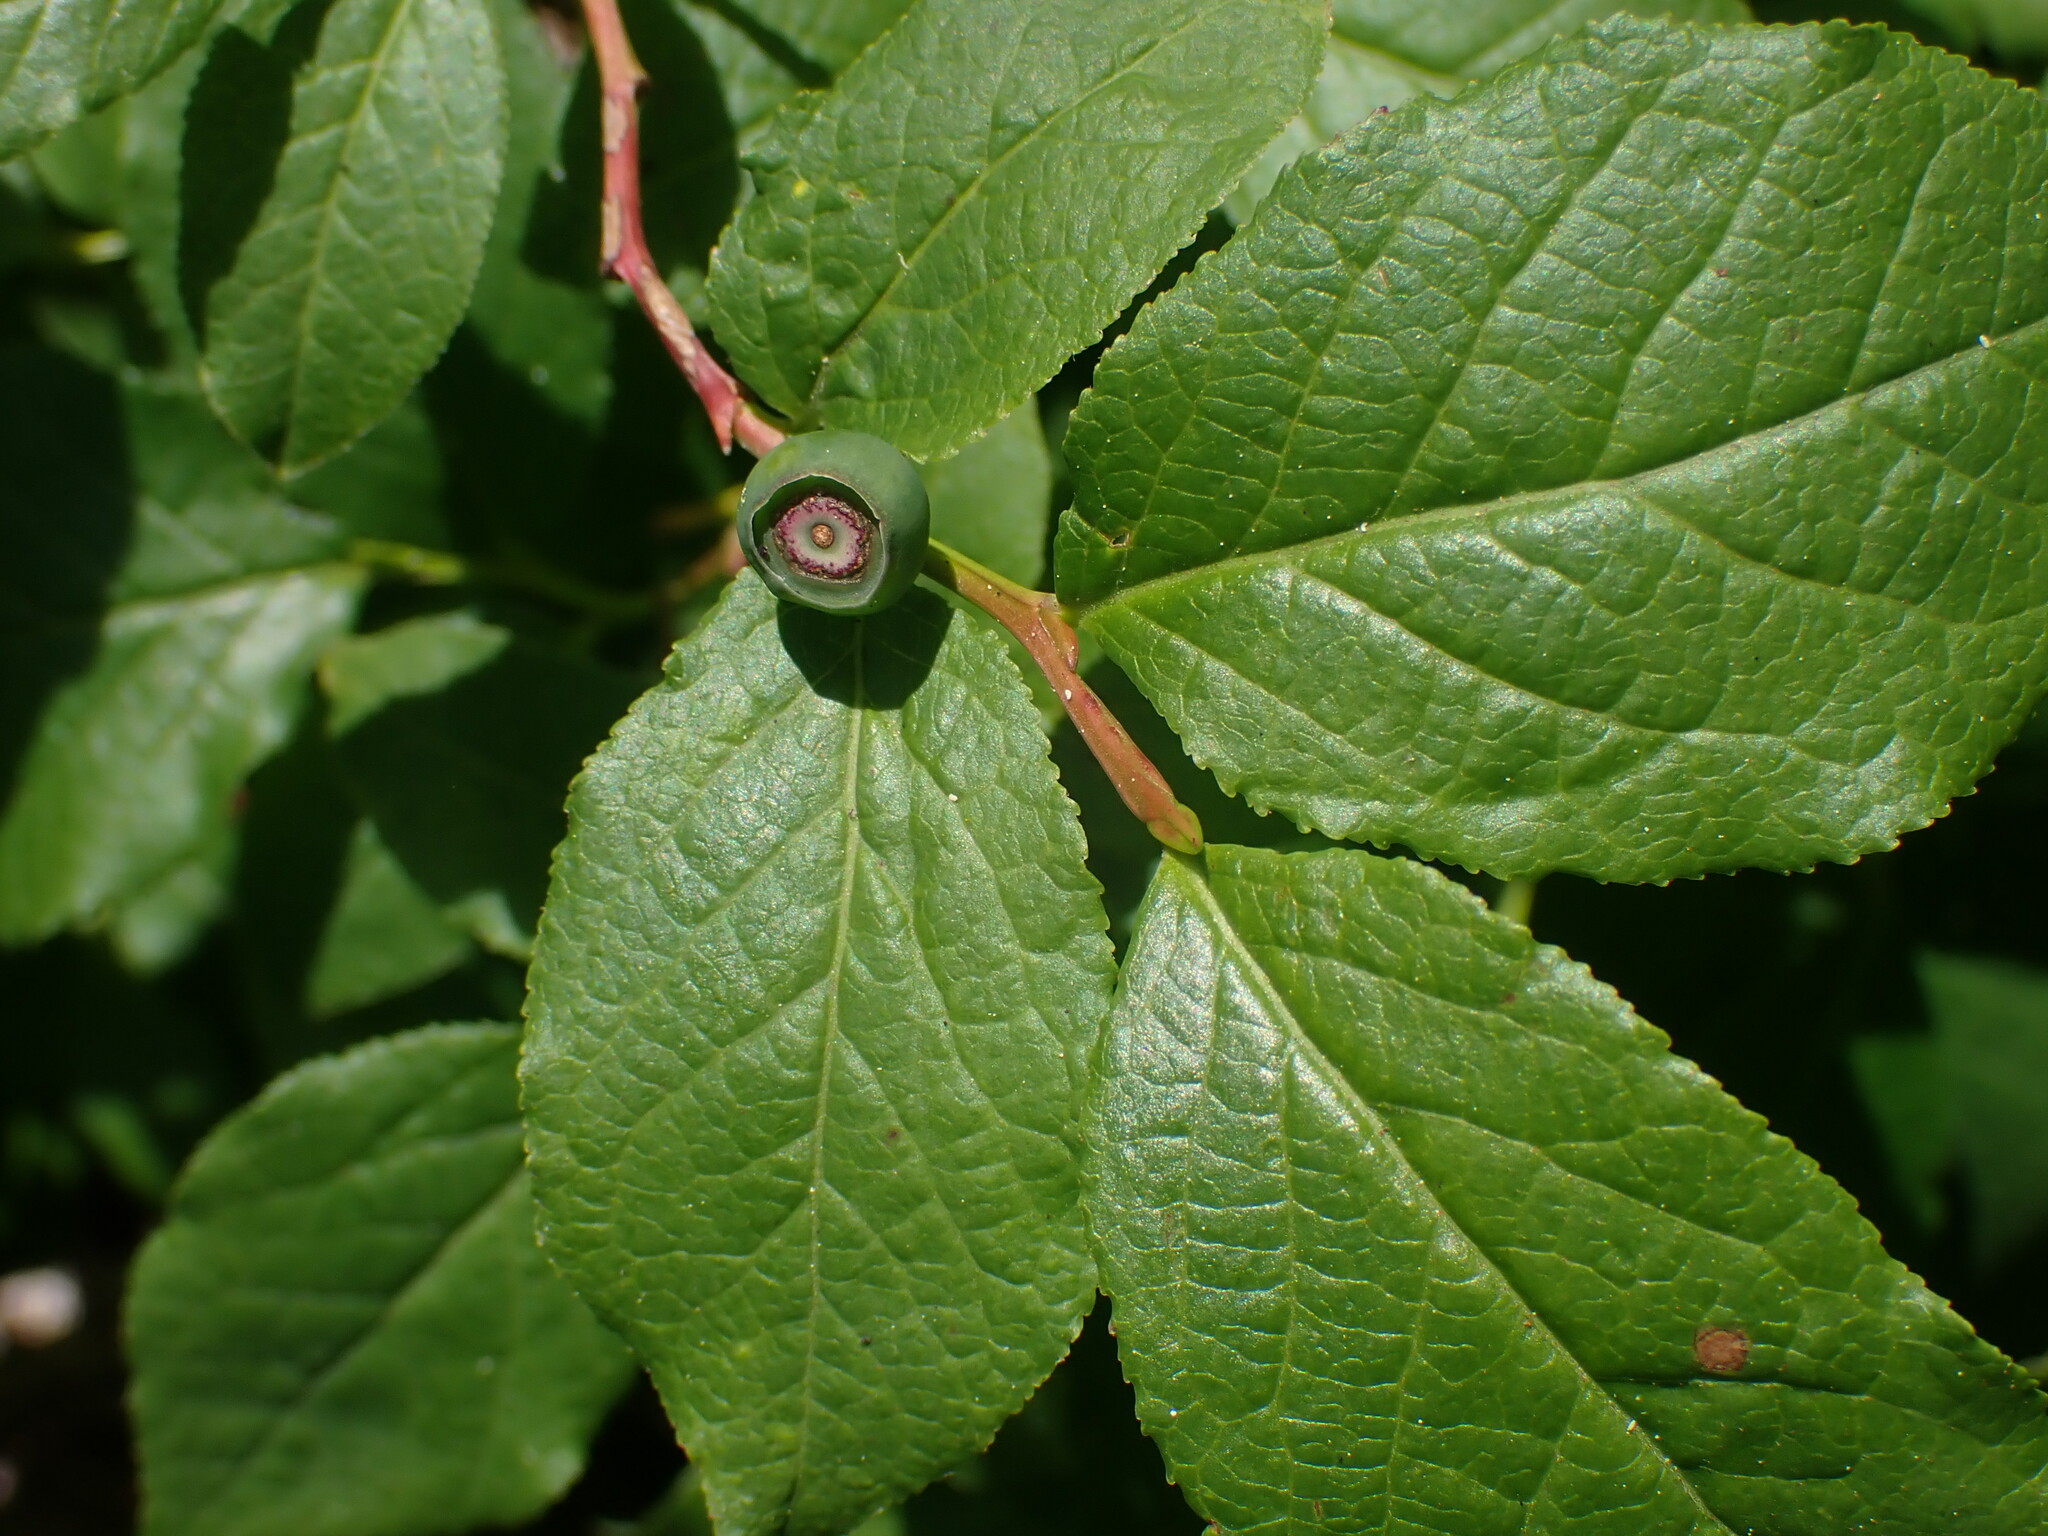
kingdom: Plantae
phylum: Tracheophyta
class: Magnoliopsida
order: Ericales
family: Ericaceae
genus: Vaccinium
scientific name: Vaccinium membranaceum
